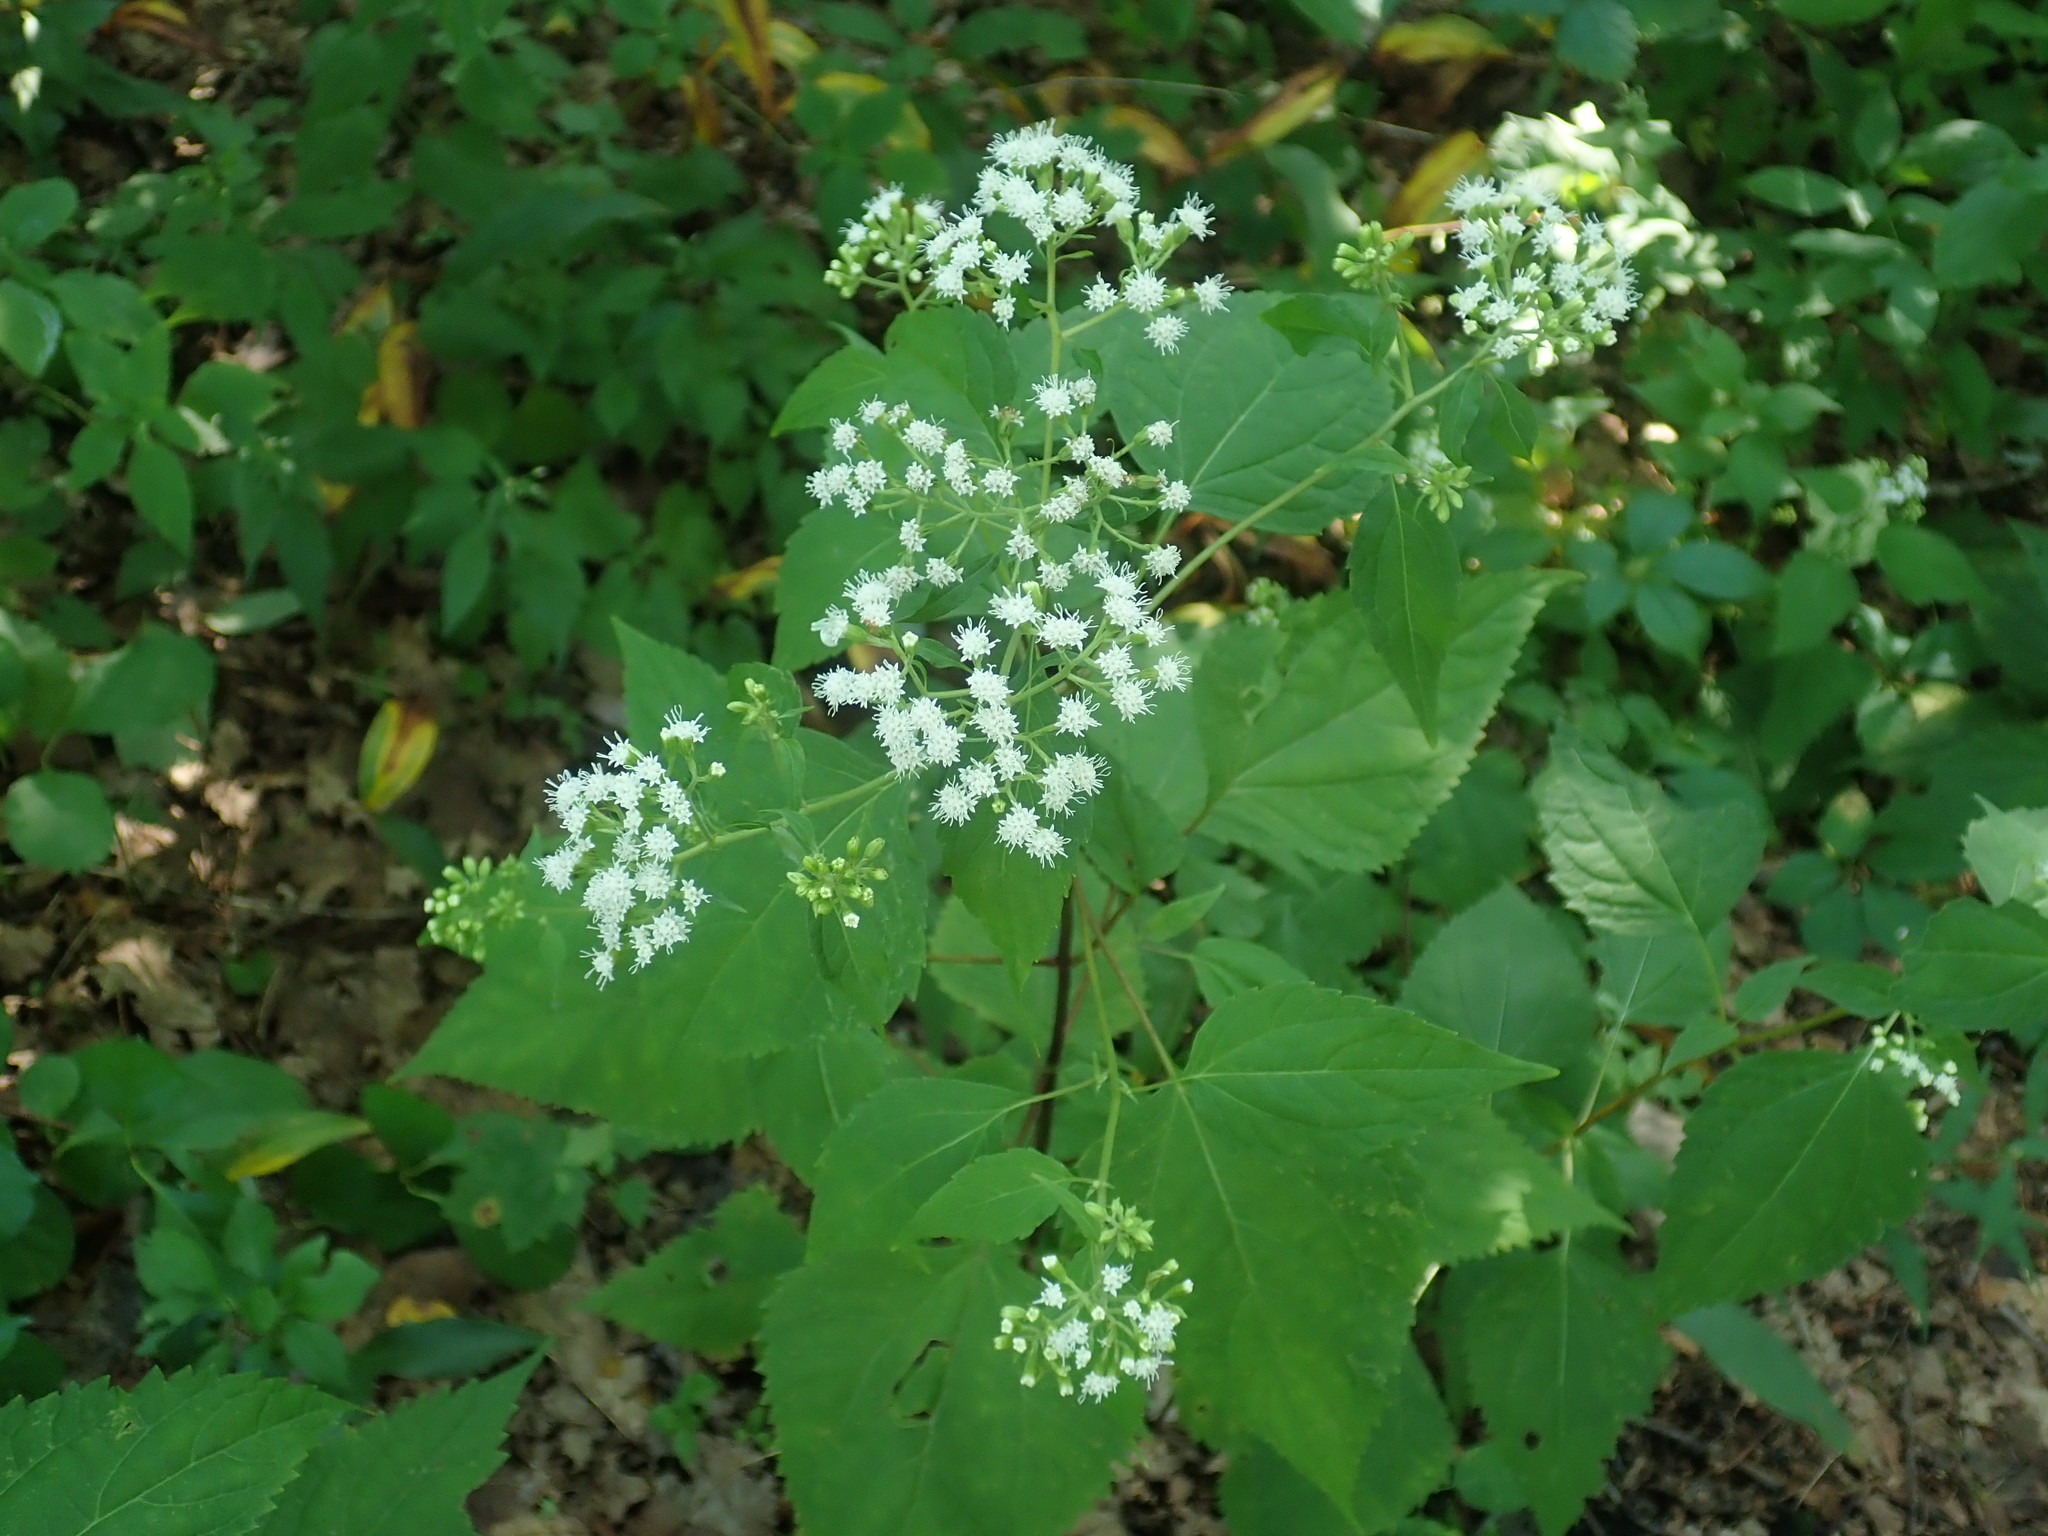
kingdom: Plantae
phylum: Tracheophyta
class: Magnoliopsida
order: Asterales
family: Asteraceae
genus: Ageratina
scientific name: Ageratina altissima
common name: White snakeroot
